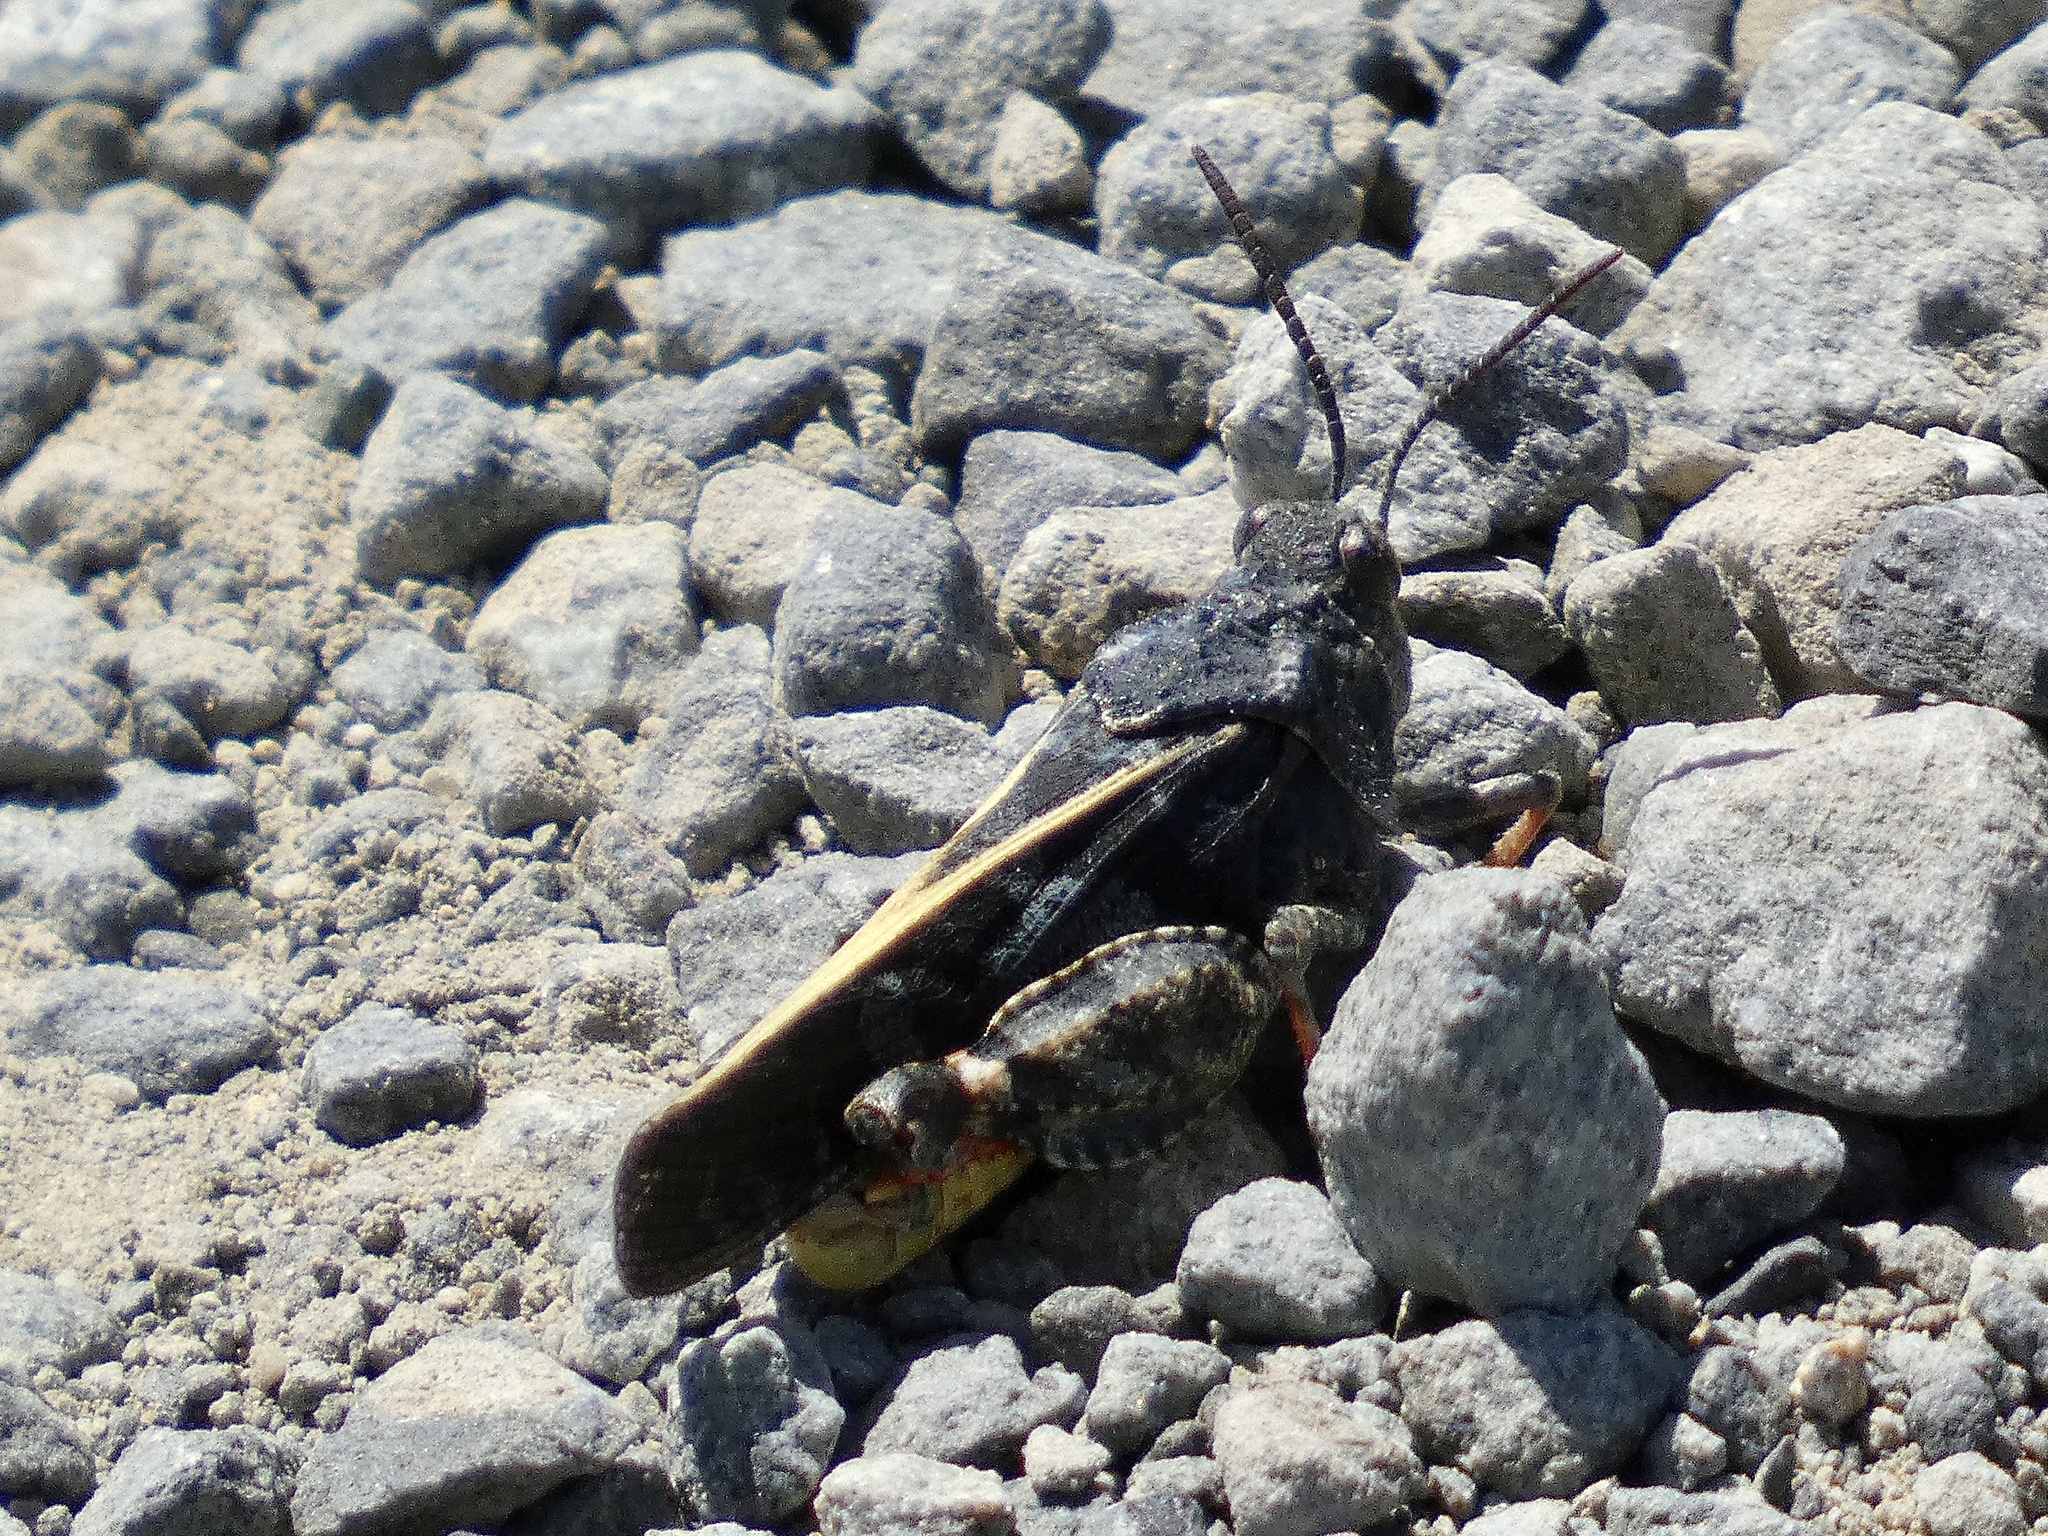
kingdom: Animalia
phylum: Arthropoda
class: Insecta
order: Orthoptera
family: Acrididae
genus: Agymnastus
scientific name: Agymnastus ingens
